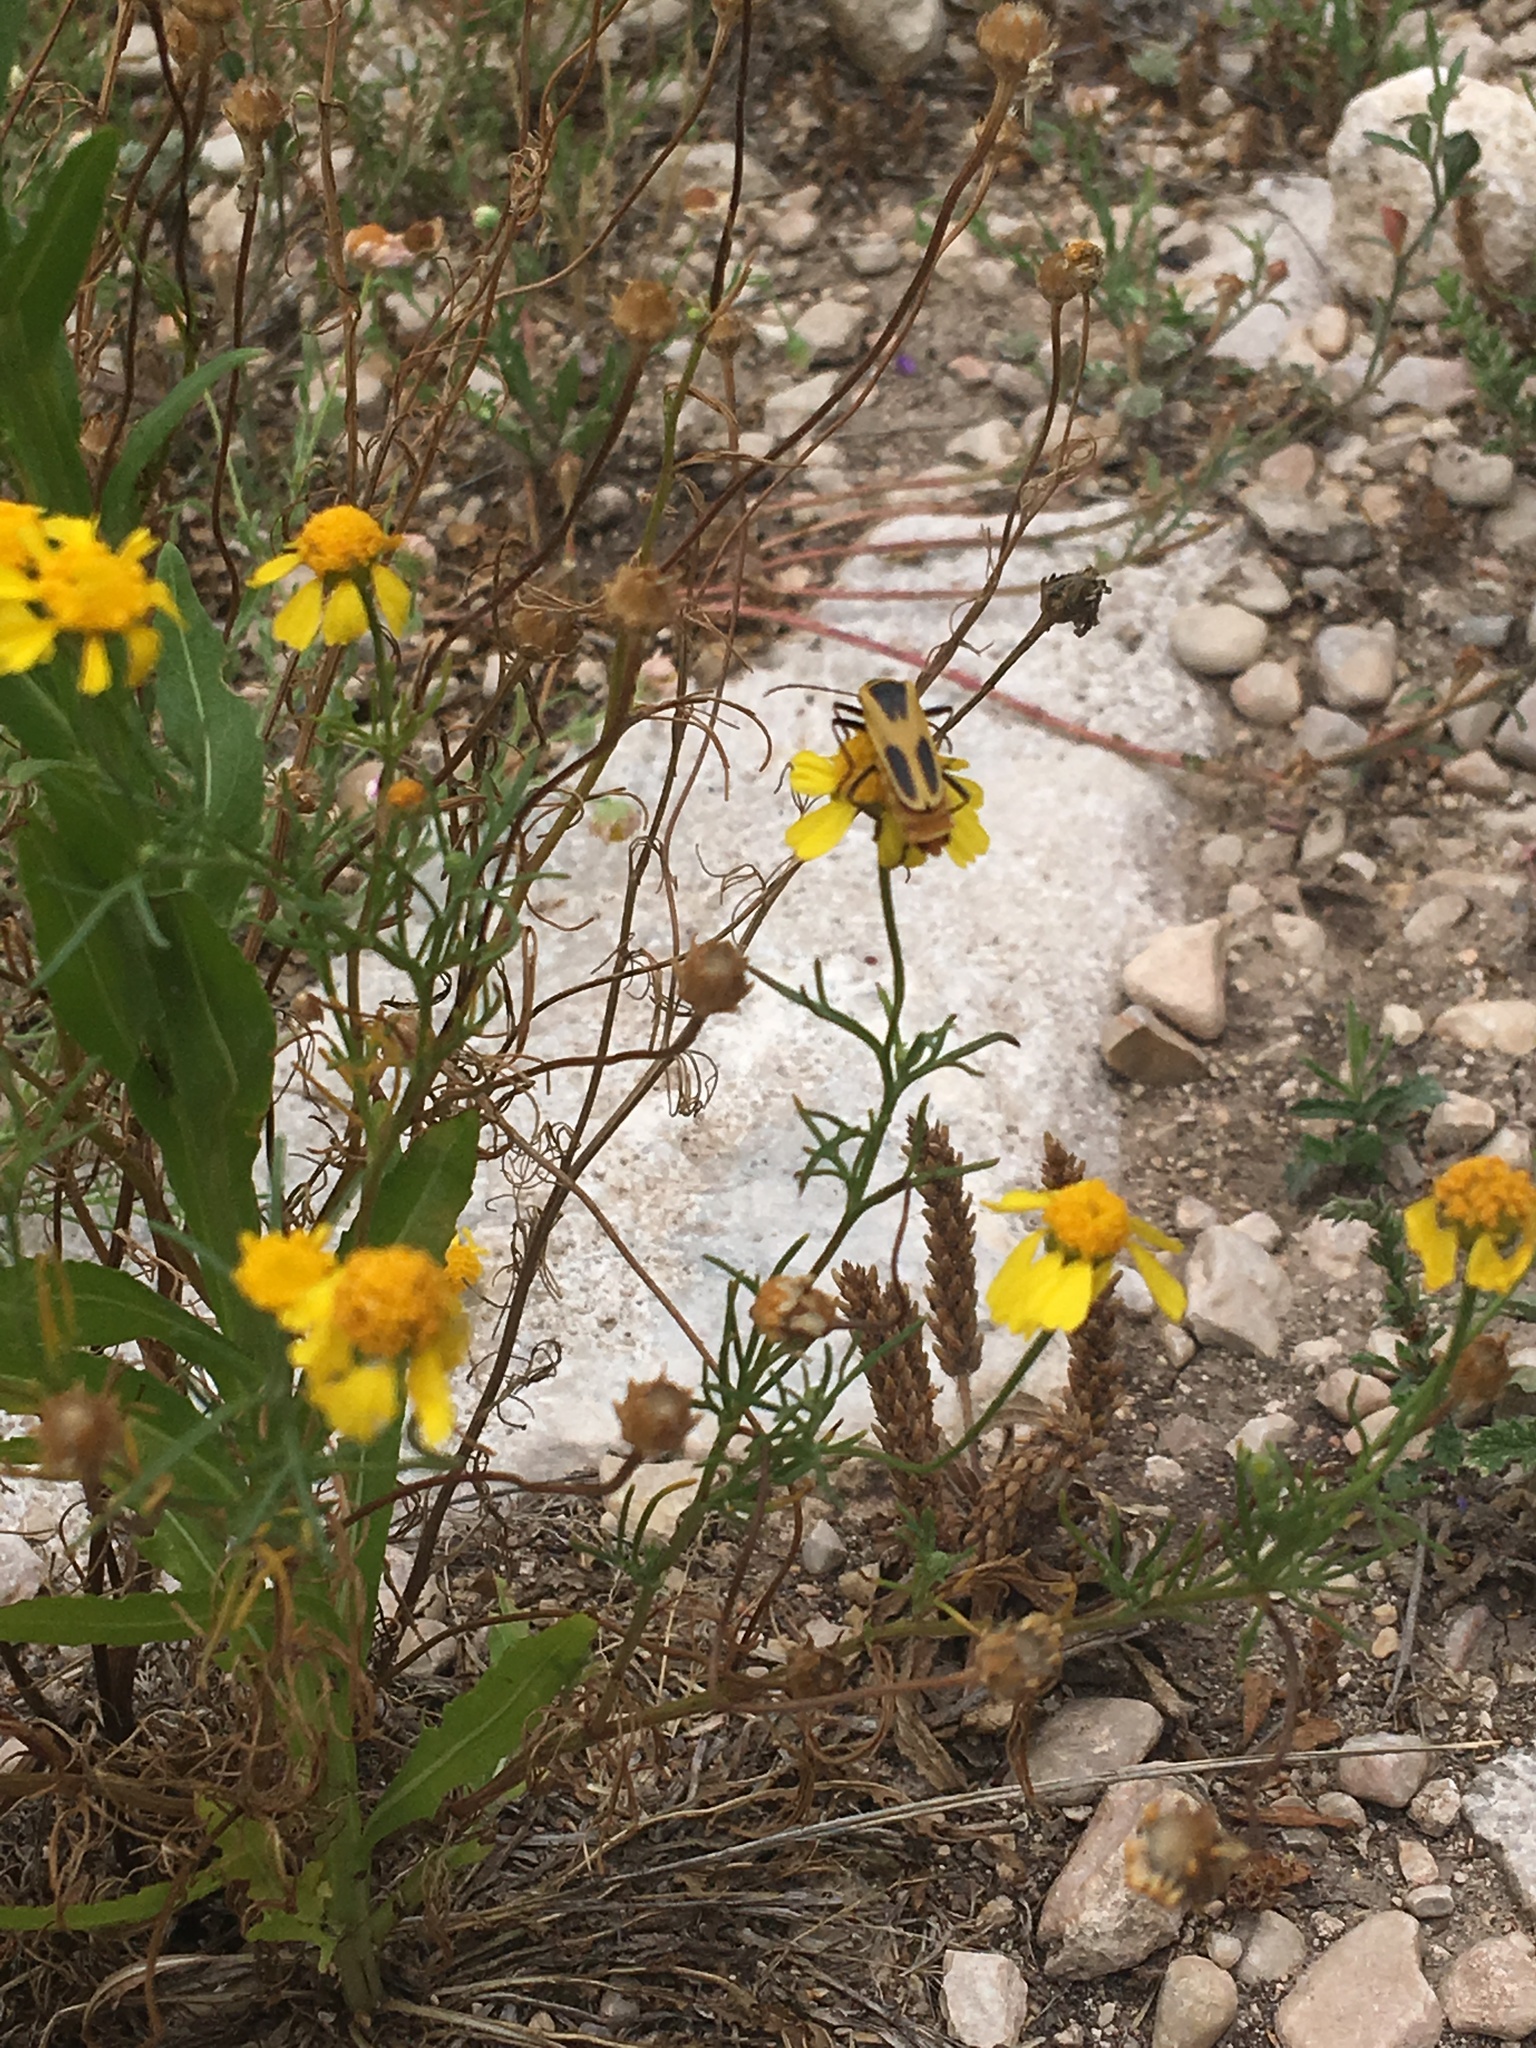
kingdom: Animalia
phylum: Arthropoda
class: Insecta
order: Coleoptera
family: Cantharidae
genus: Chauliognathus
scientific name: Chauliognathus scutellaris
